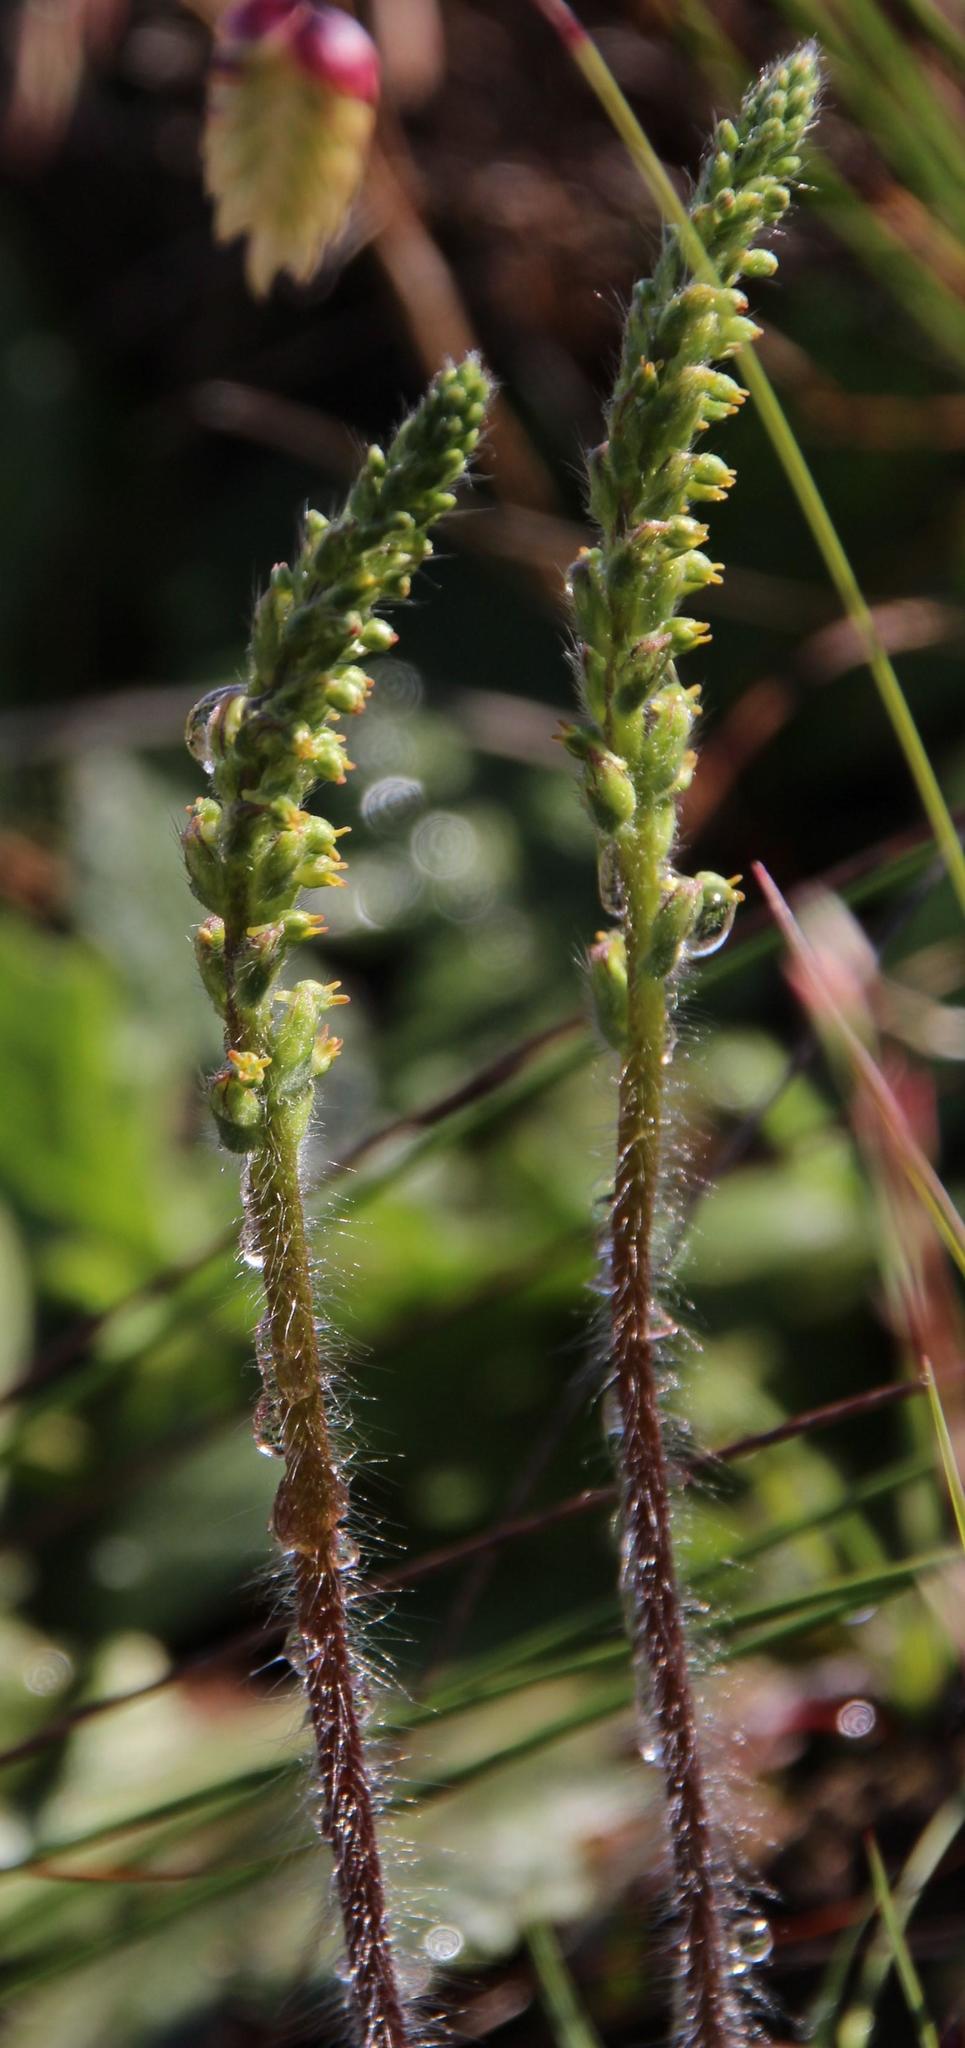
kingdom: Plantae
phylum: Tracheophyta
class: Liliopsida
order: Asparagales
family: Orchidaceae
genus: Holothrix
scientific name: Holothrix villosa
